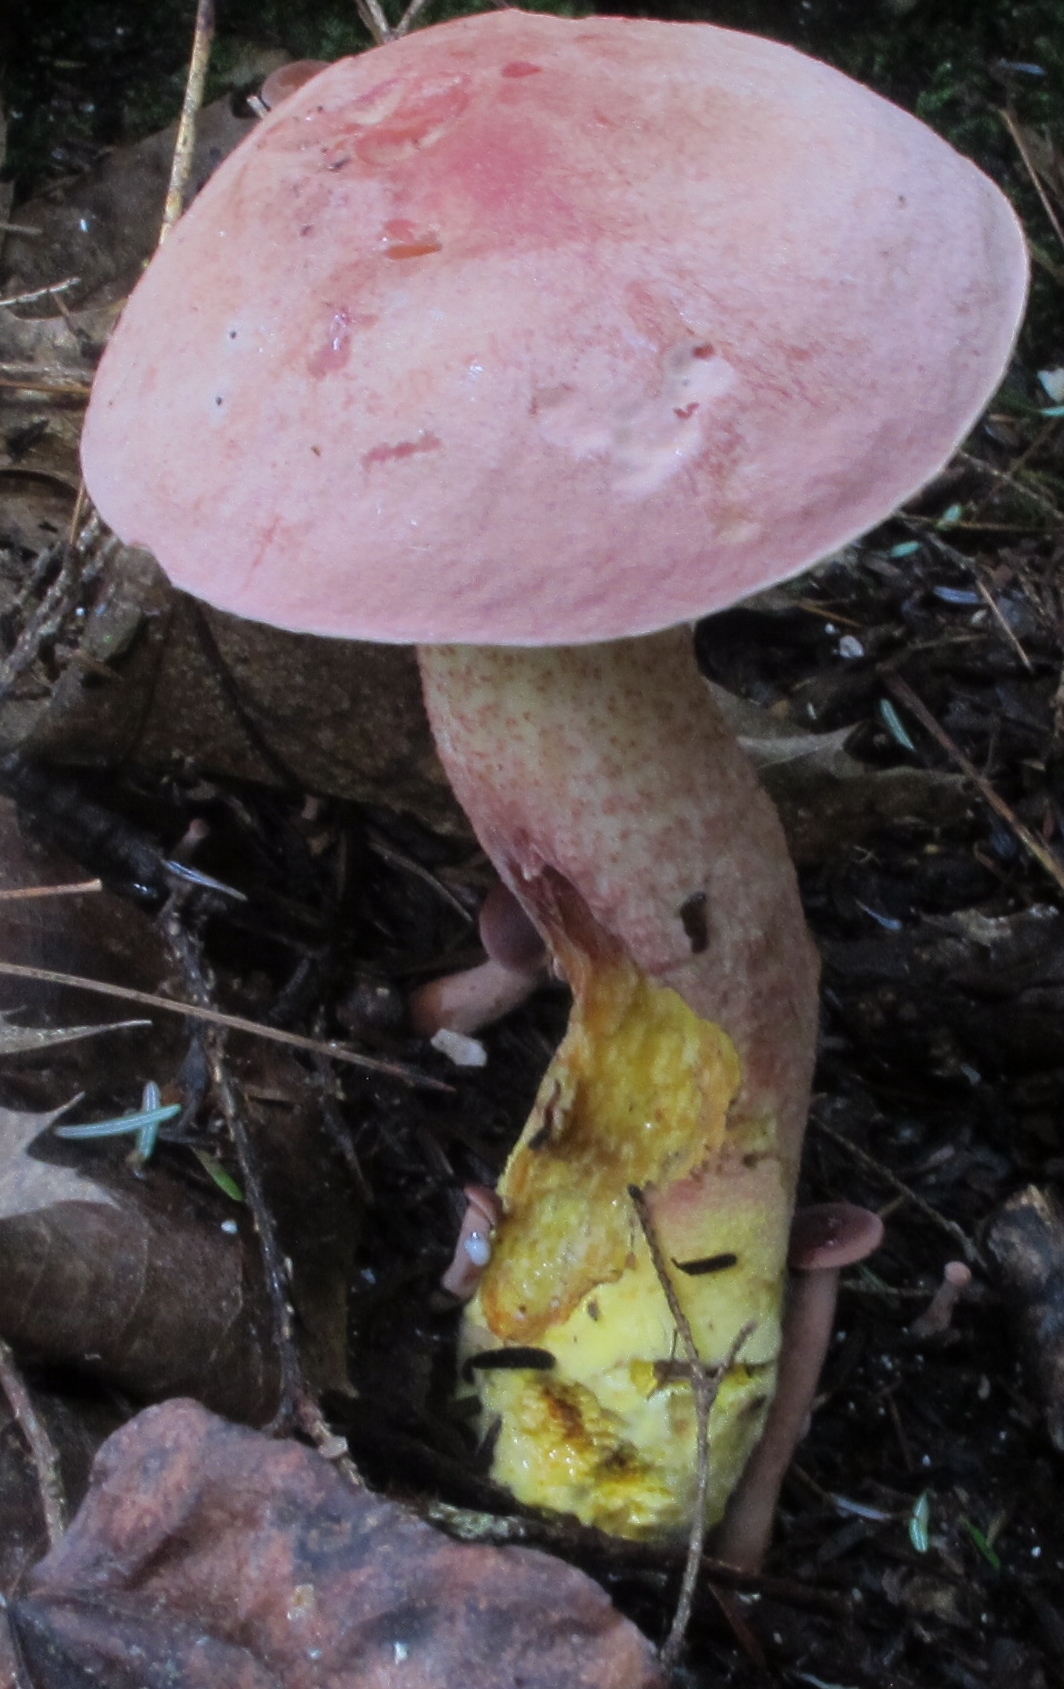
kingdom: Fungi
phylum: Basidiomycota
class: Agaricomycetes
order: Boletales
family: Boletaceae
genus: Harrya
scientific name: Harrya chromipes
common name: Chrome-footed bolete
